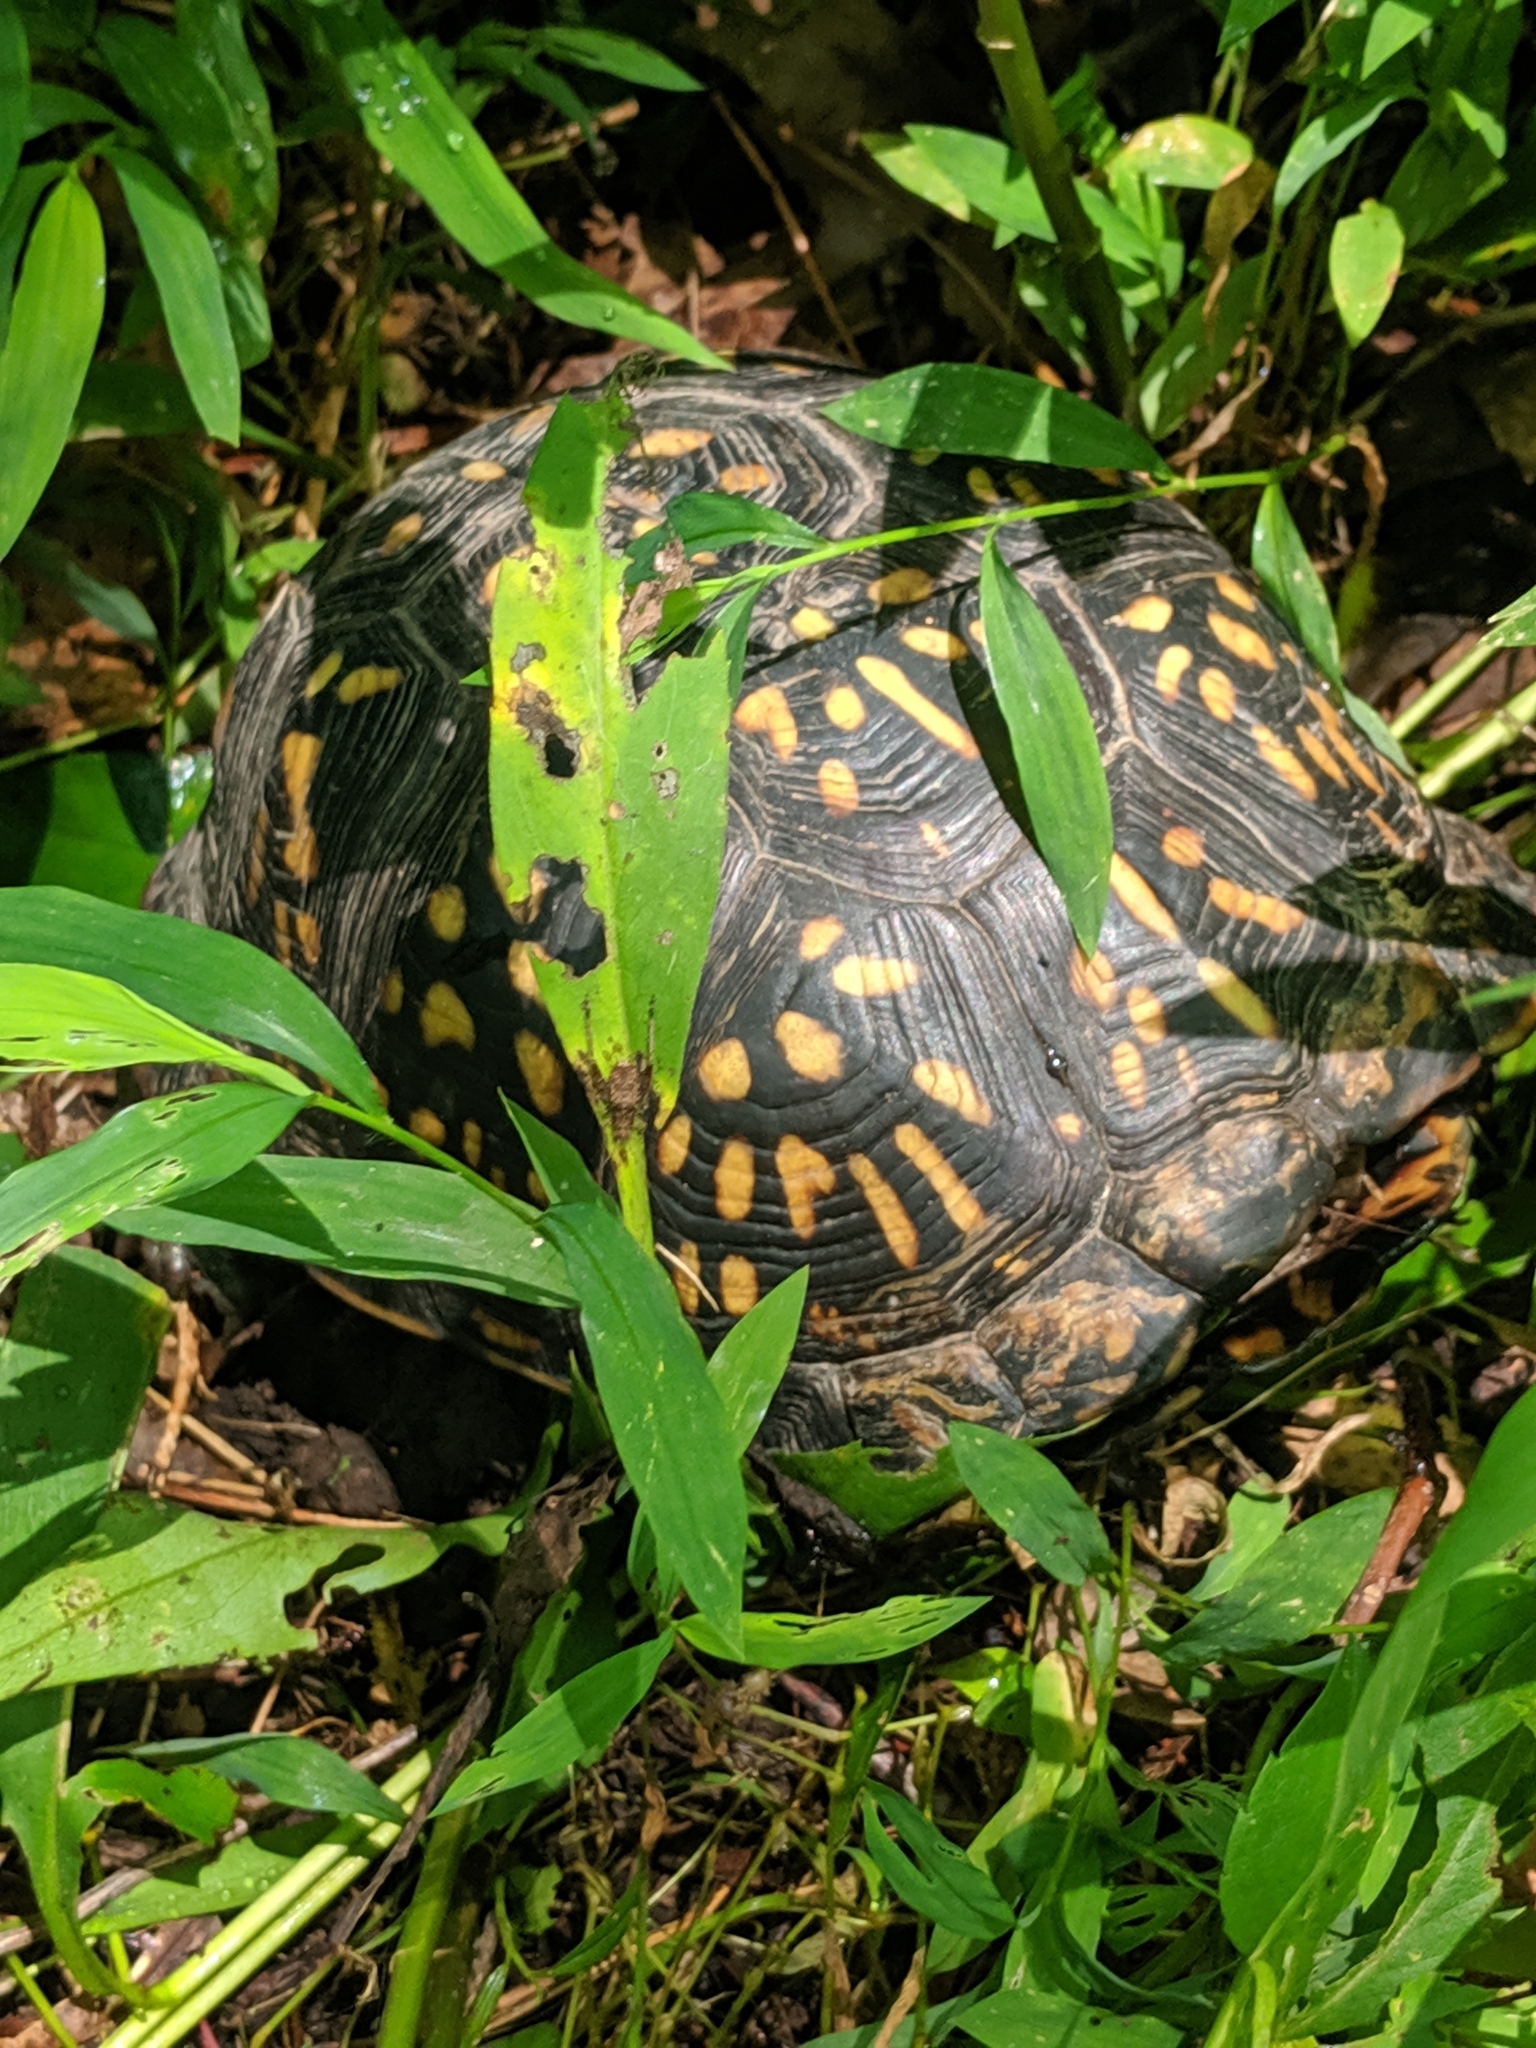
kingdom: Animalia
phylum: Chordata
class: Testudines
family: Emydidae
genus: Terrapene
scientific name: Terrapene carolina
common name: Common box turtle
